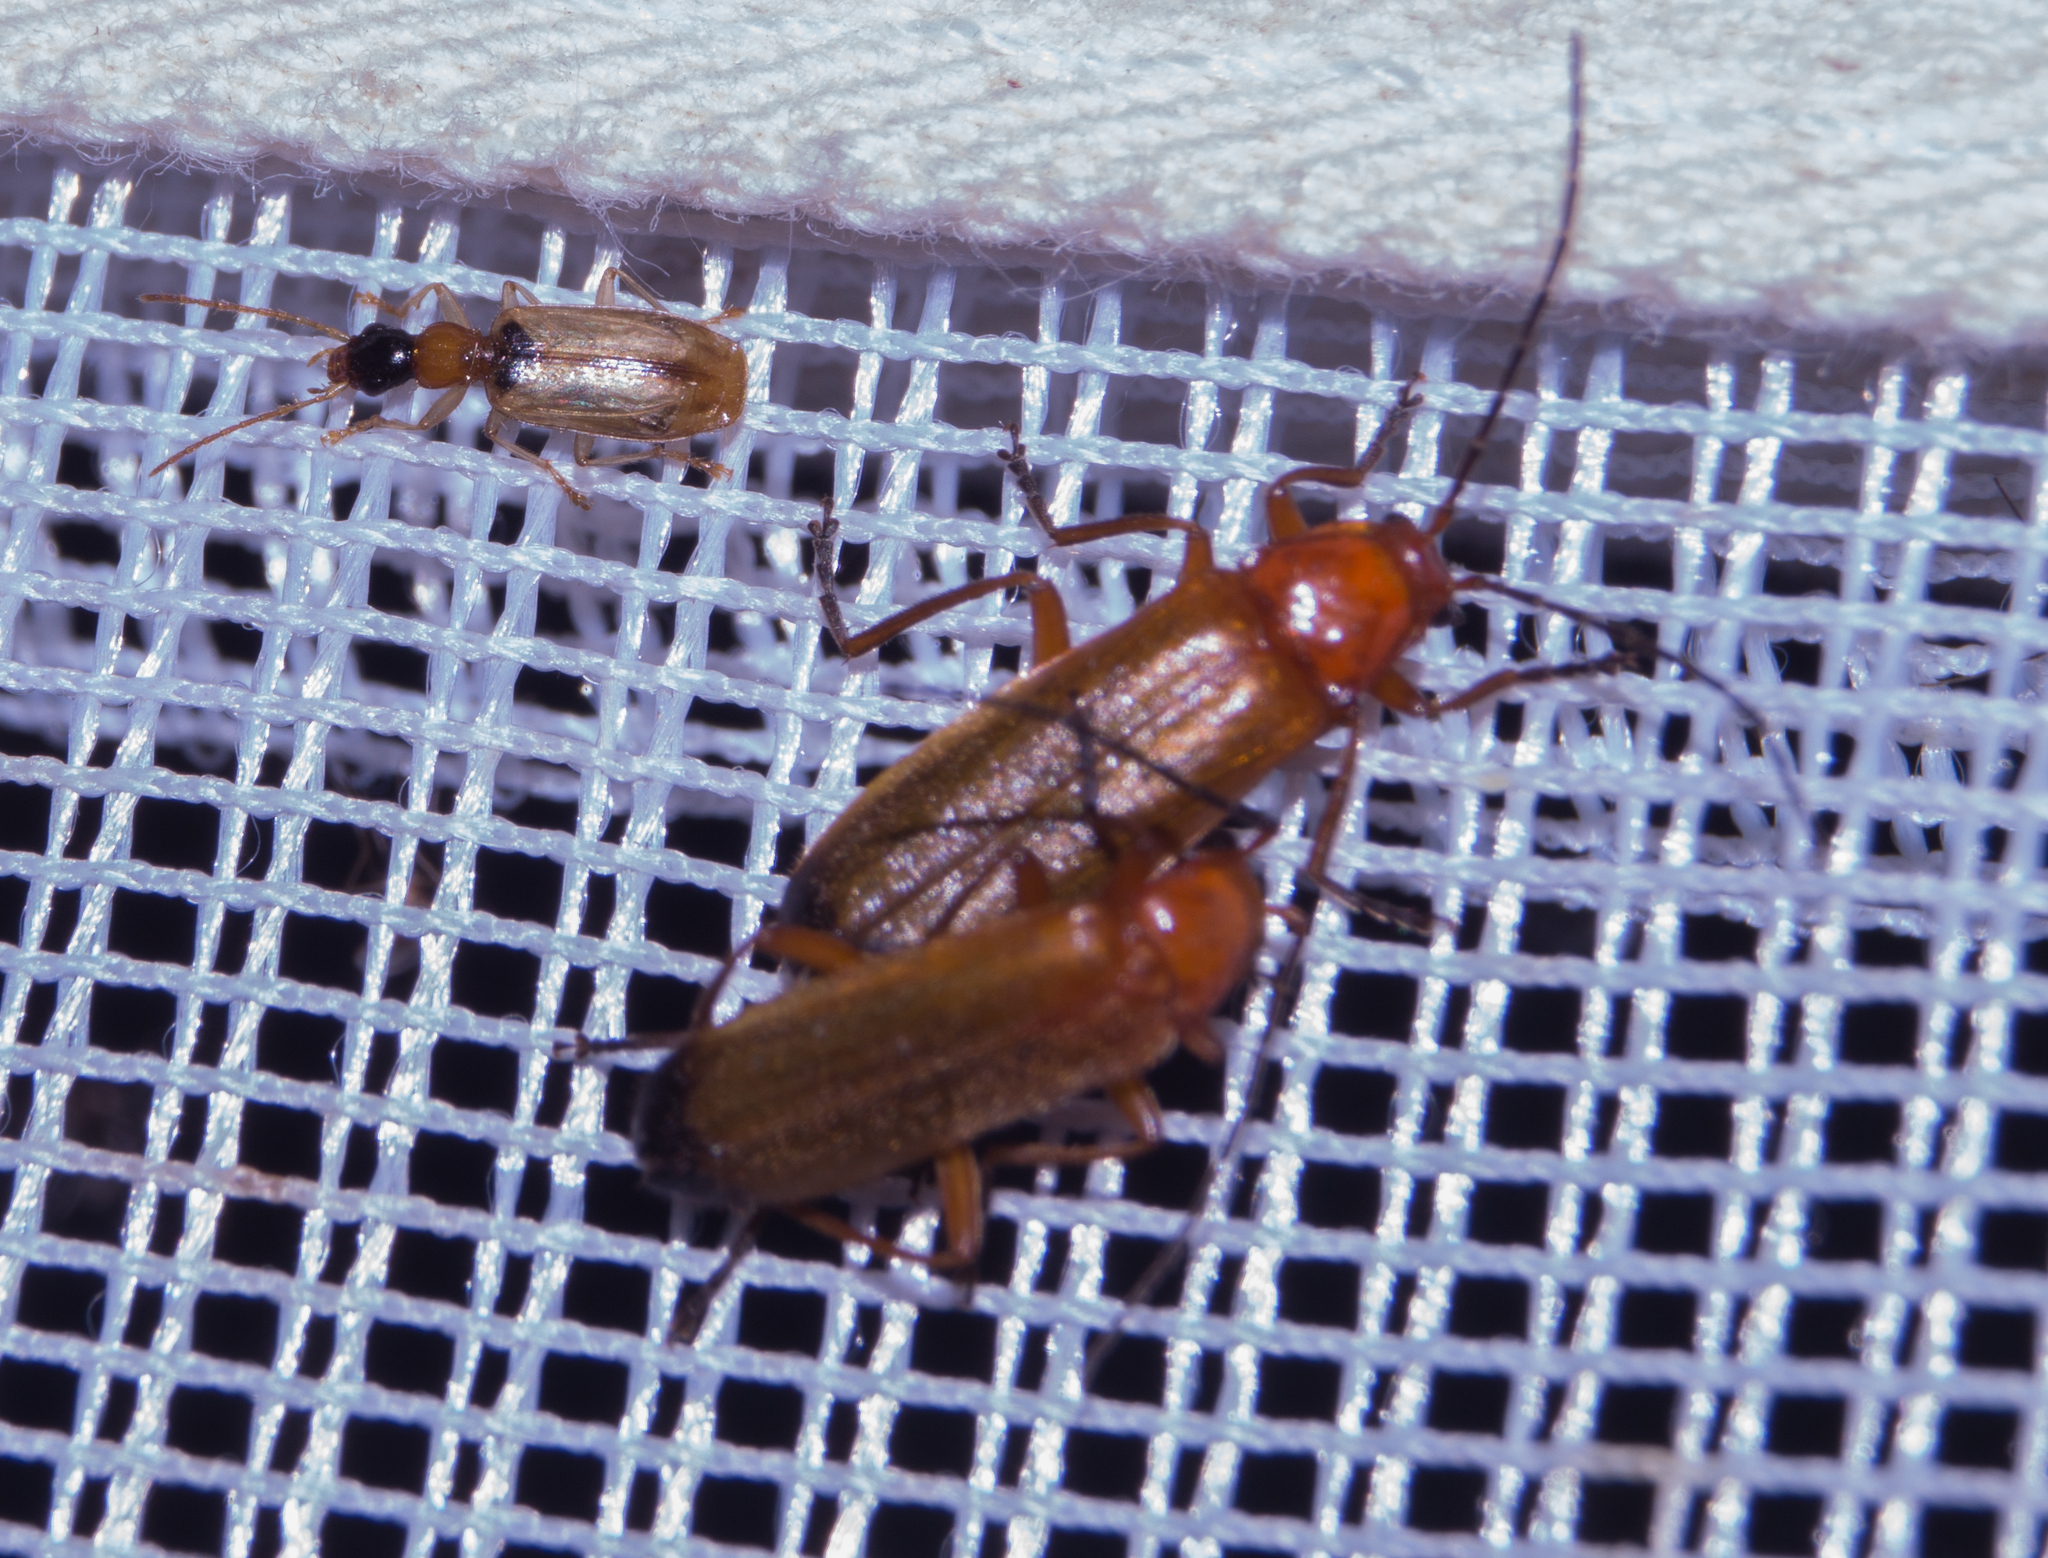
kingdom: Animalia
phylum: Arthropoda
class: Insecta
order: Coleoptera
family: Cantharidae
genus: Rhagonycha
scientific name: Rhagonycha fulva
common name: Common red soldier beetle
